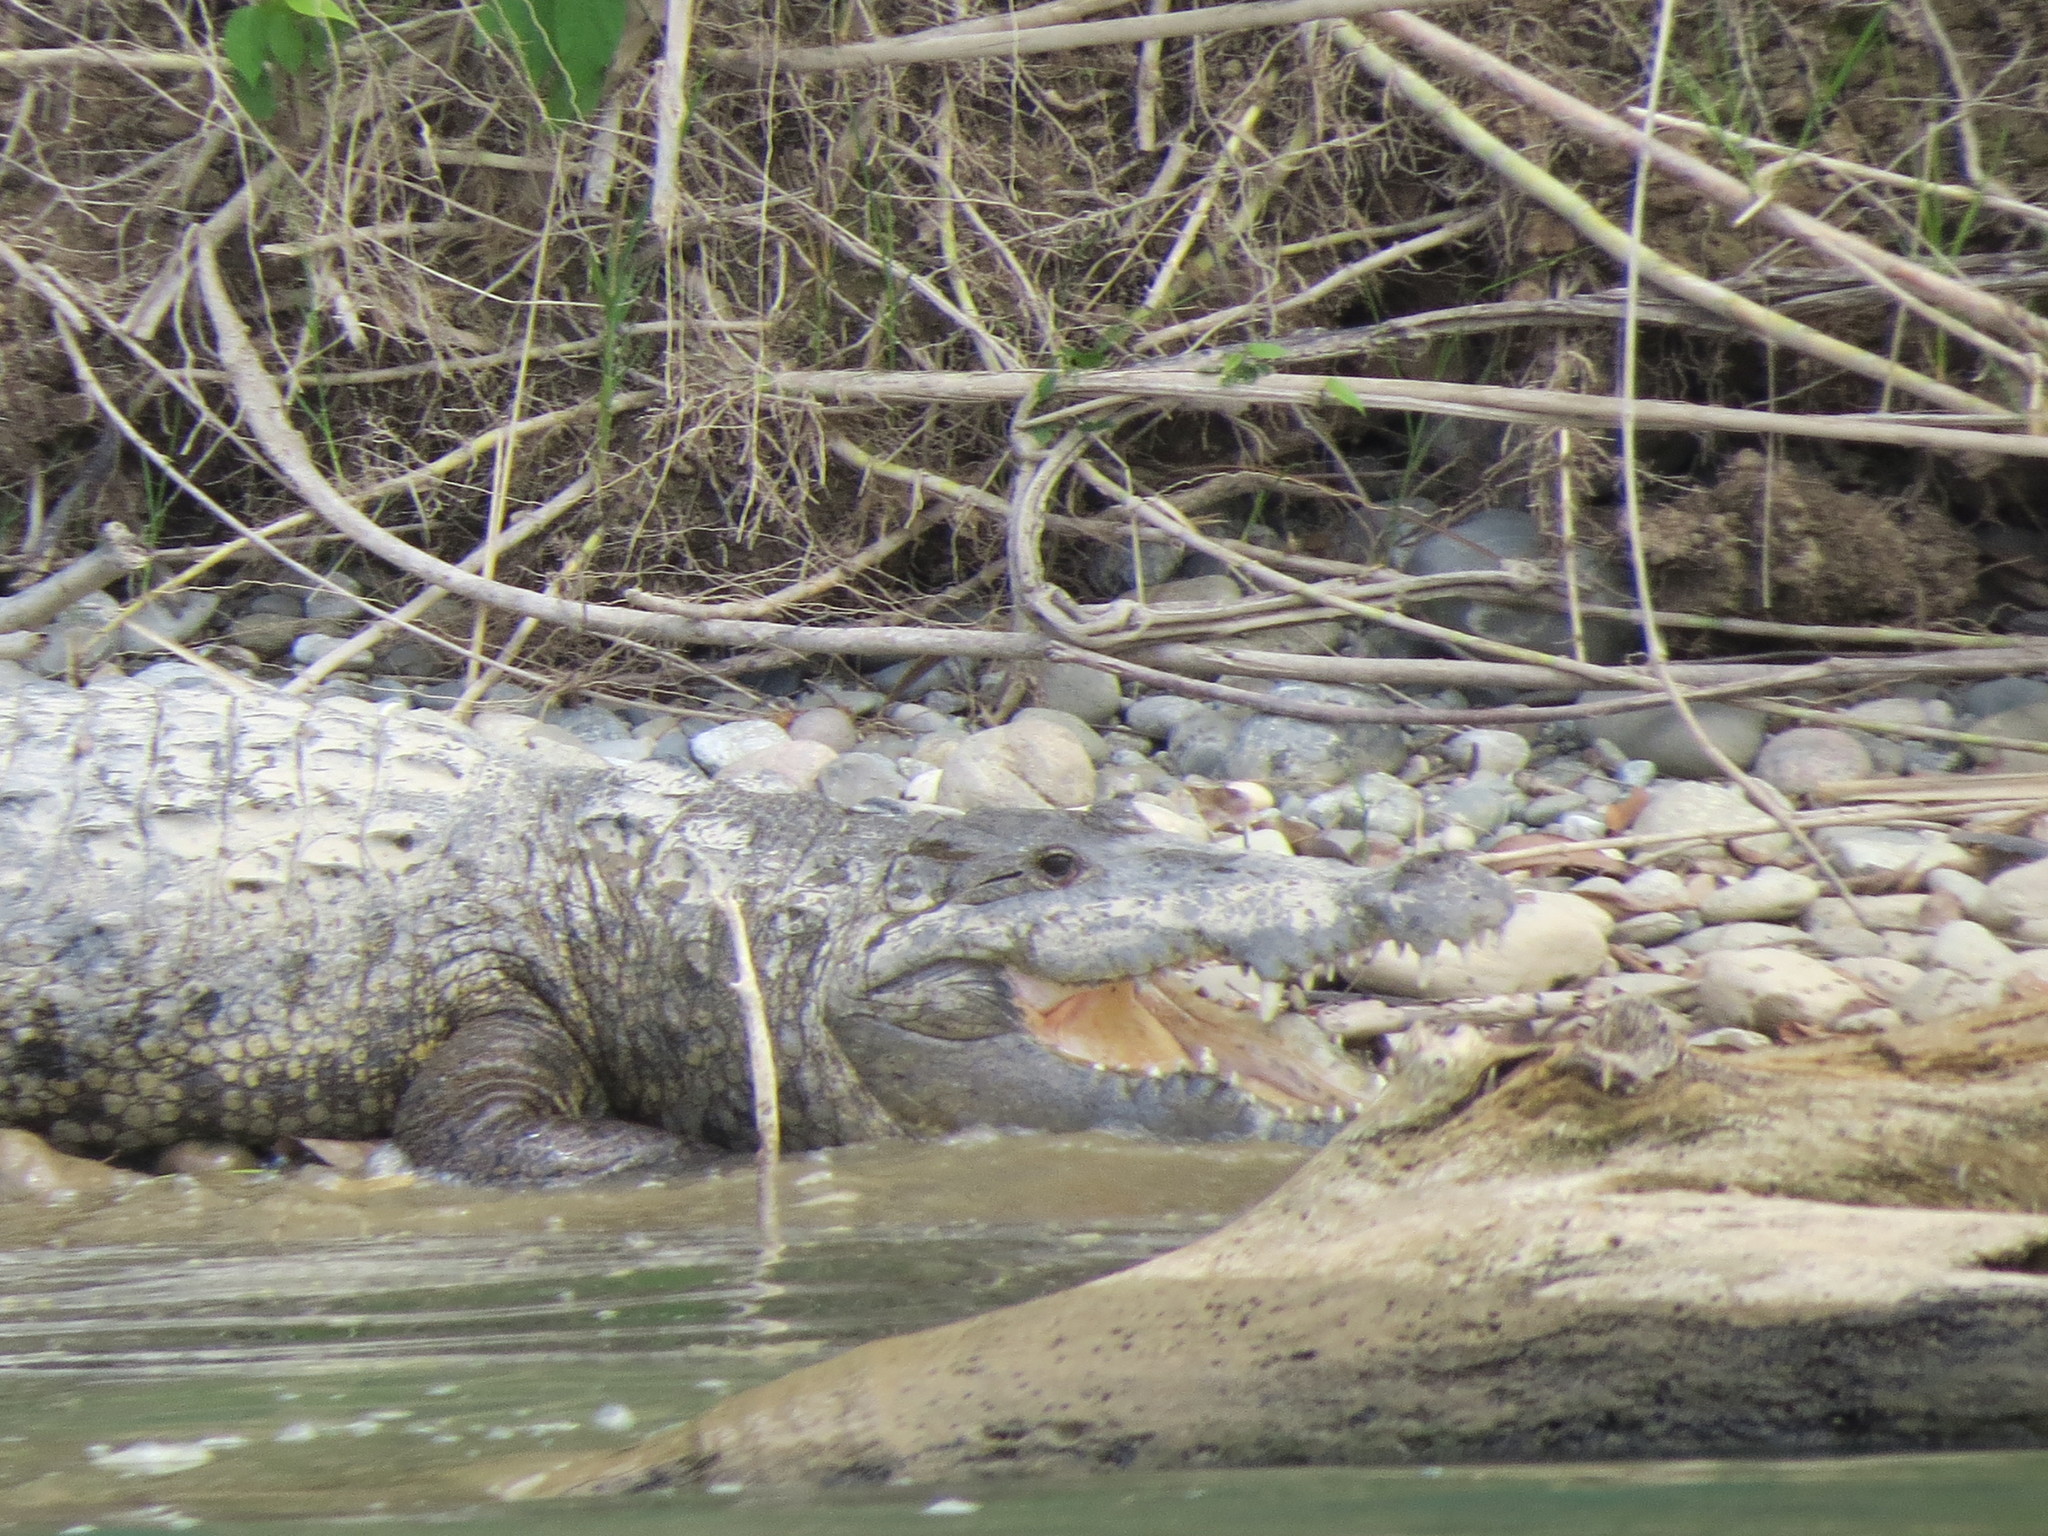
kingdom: Animalia
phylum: Chordata
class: Crocodylia
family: Crocodylidae
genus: Crocodylus
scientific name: Crocodylus moreletii
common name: Morelet's crocodile
